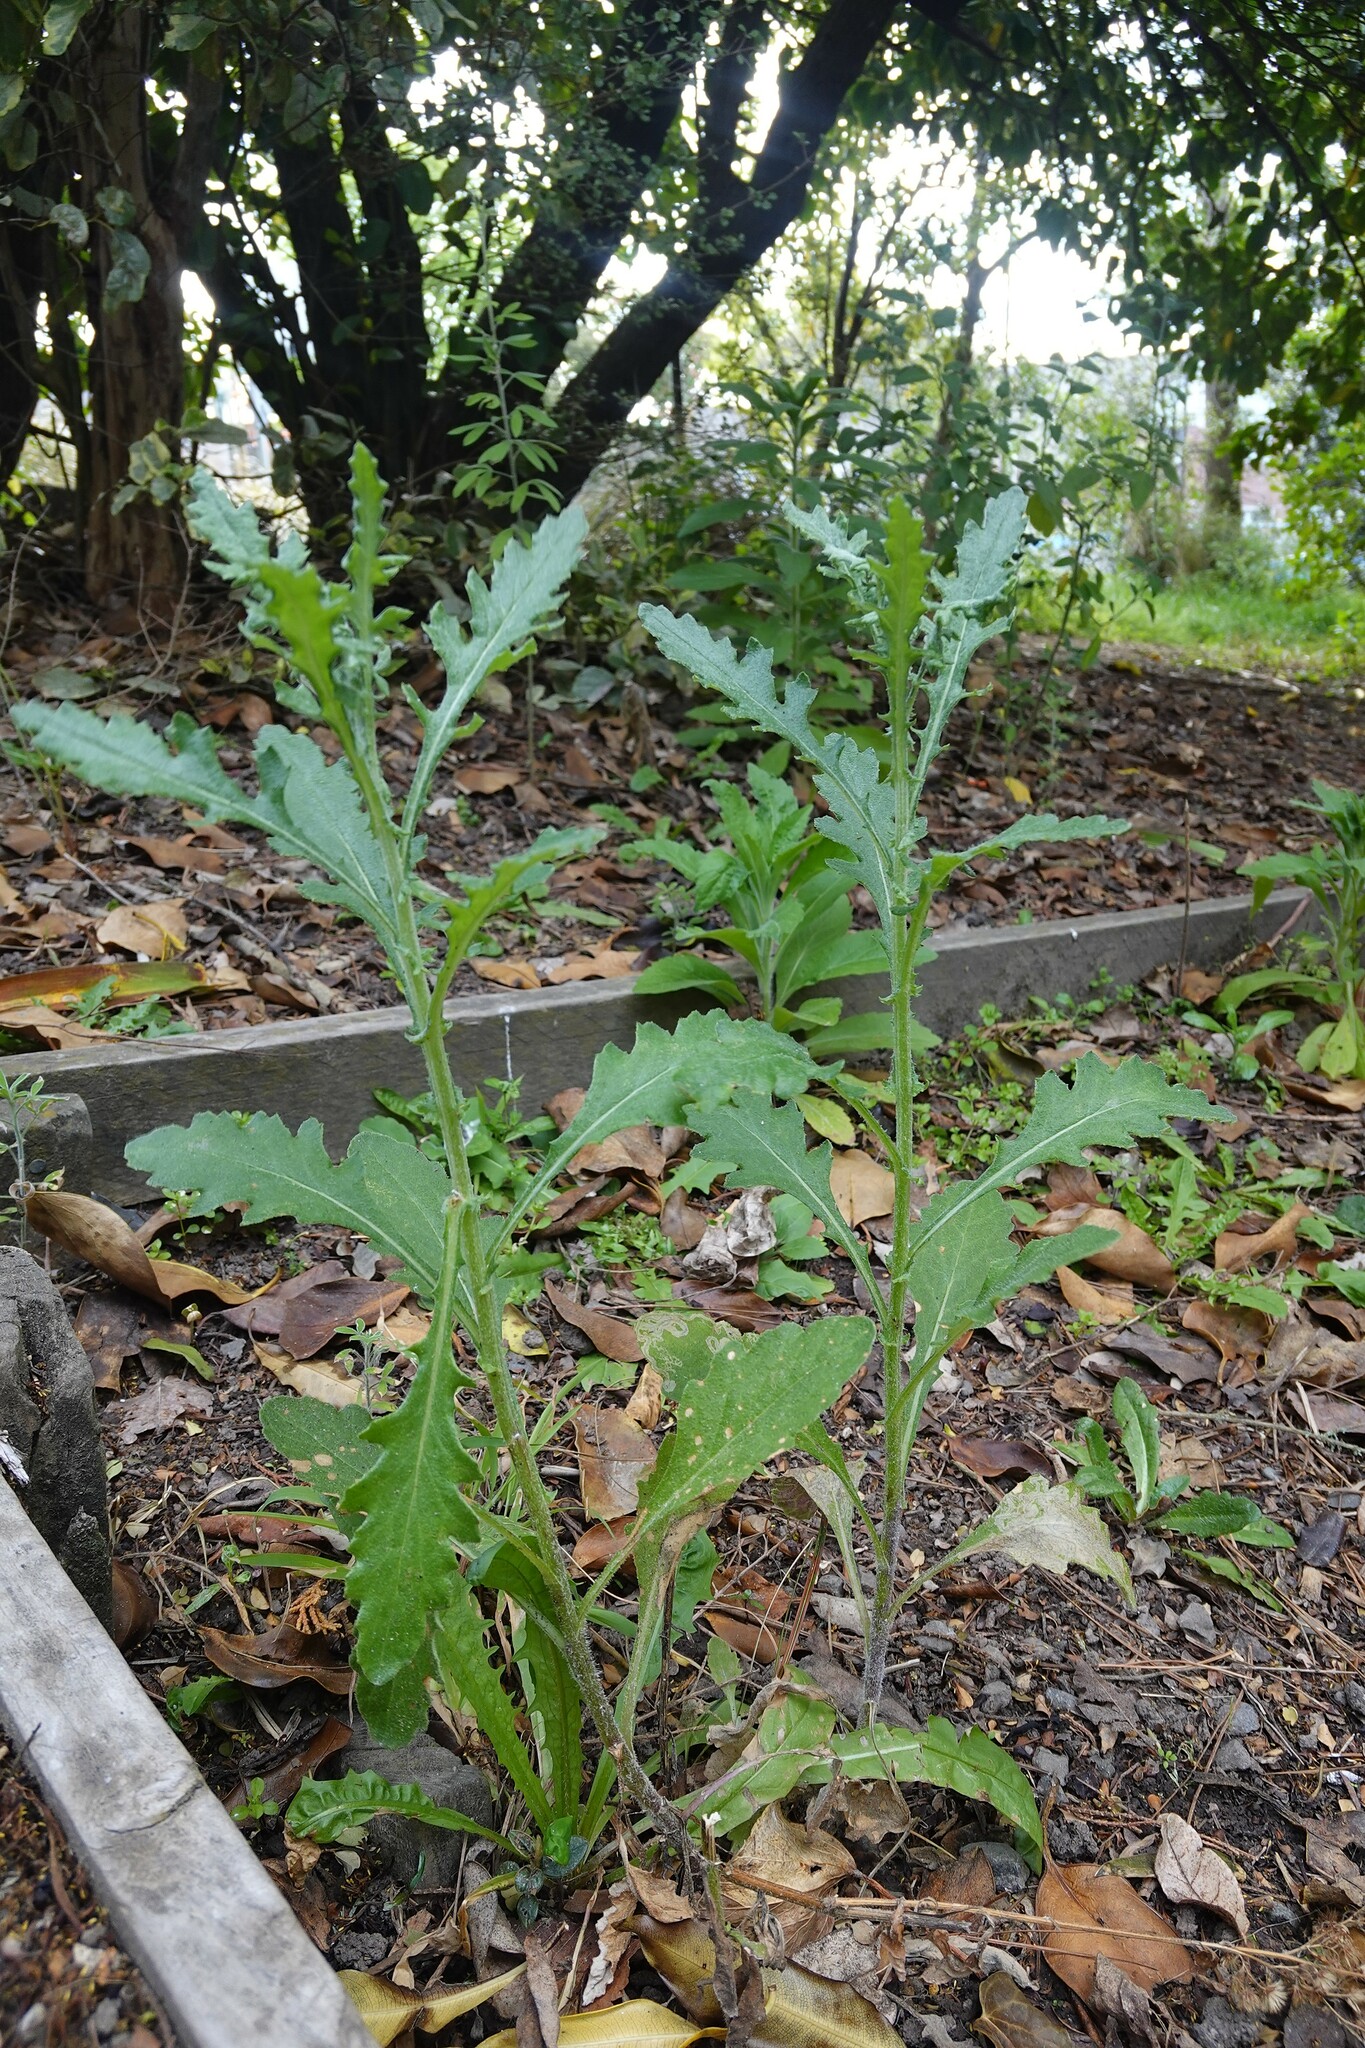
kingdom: Plantae
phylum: Tracheophyta
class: Magnoliopsida
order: Asterales
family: Asteraceae
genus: Senecio
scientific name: Senecio glomeratus
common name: Cutleaf burnweed
